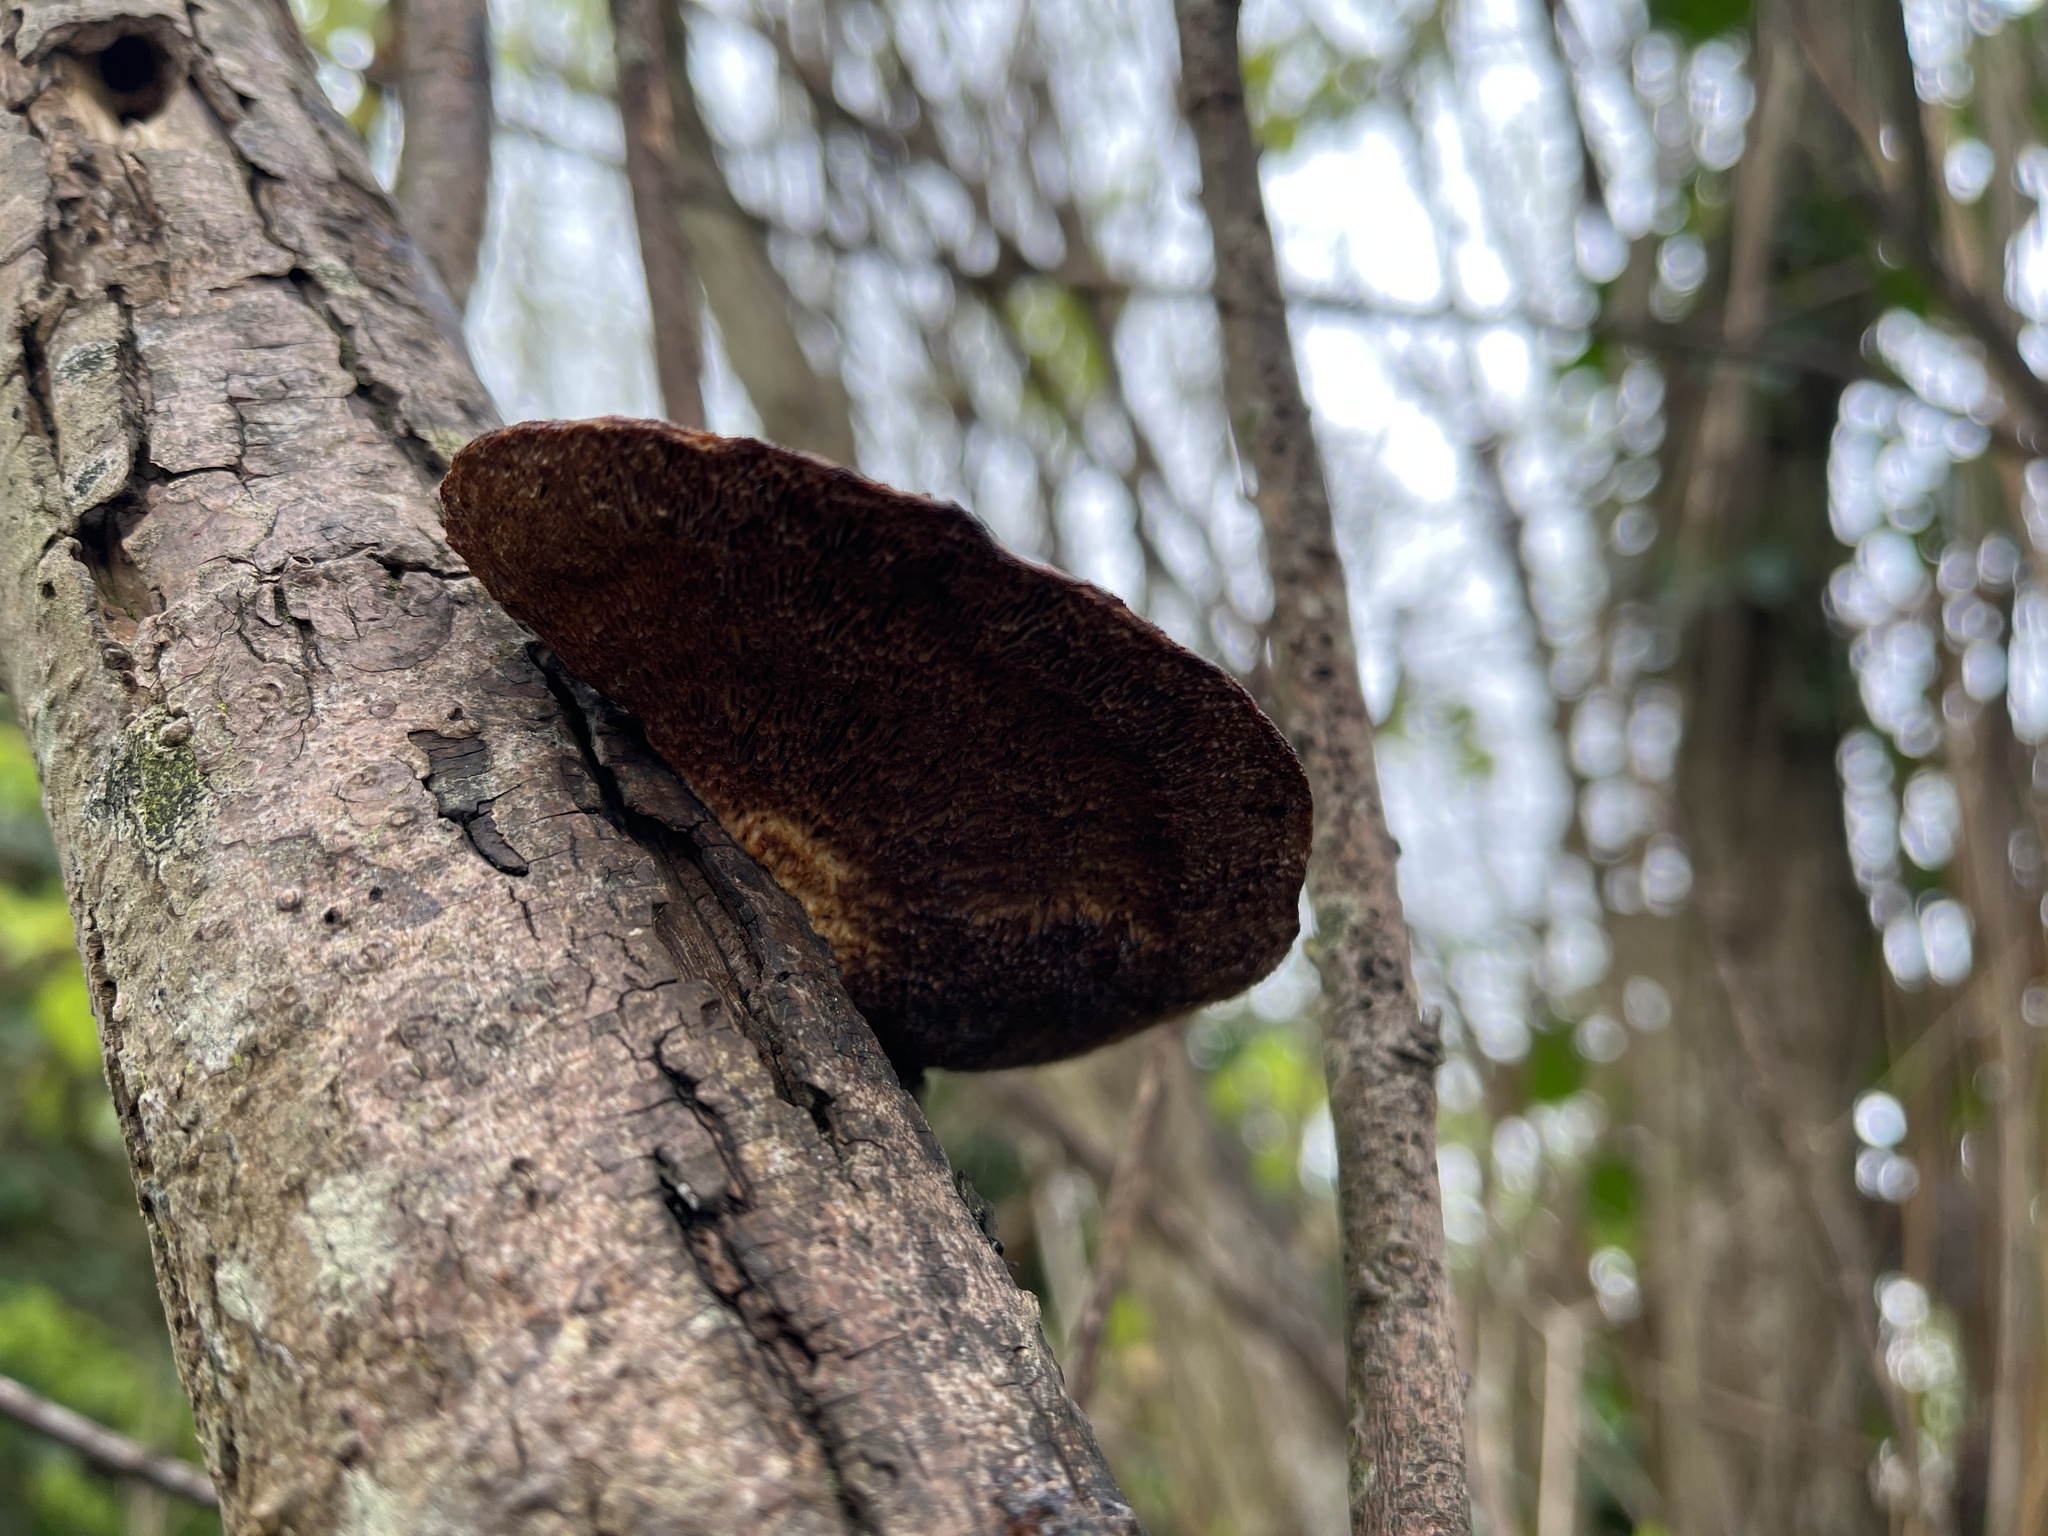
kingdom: Fungi
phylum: Basidiomycota
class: Agaricomycetes
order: Polyporales
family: Polyporaceae
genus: Daedaleopsis
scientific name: Daedaleopsis confragosa
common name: Blushing bracket
